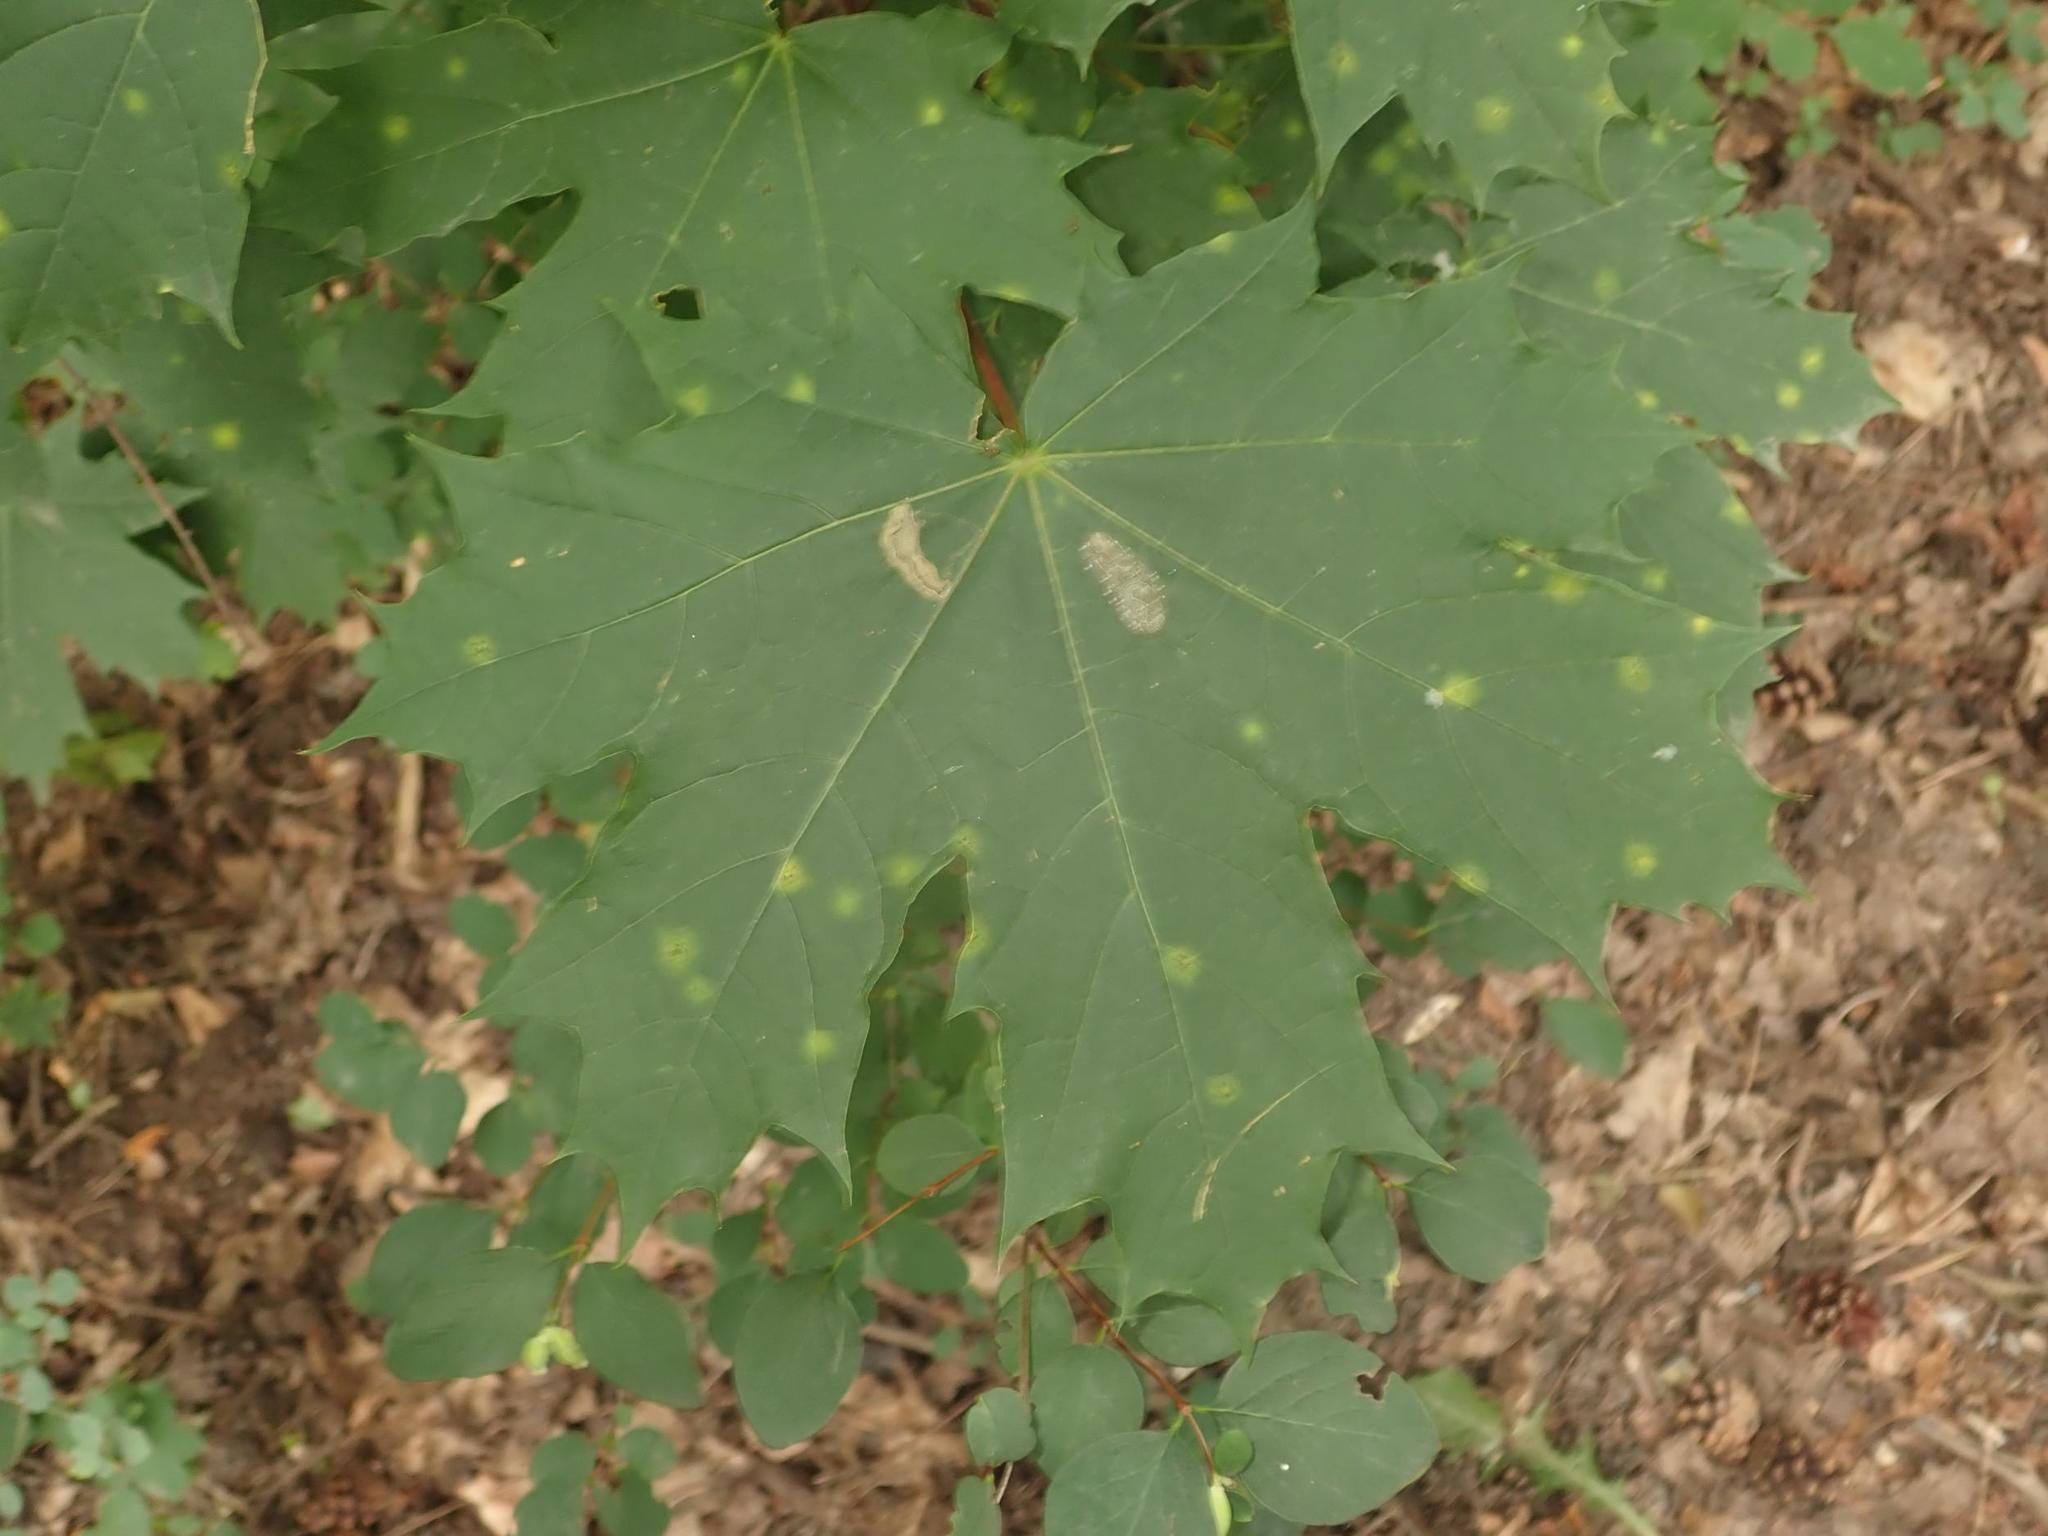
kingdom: Plantae
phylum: Tracheophyta
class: Magnoliopsida
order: Sapindales
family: Sapindaceae
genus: Acer
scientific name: Acer platanoides
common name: Norway maple
